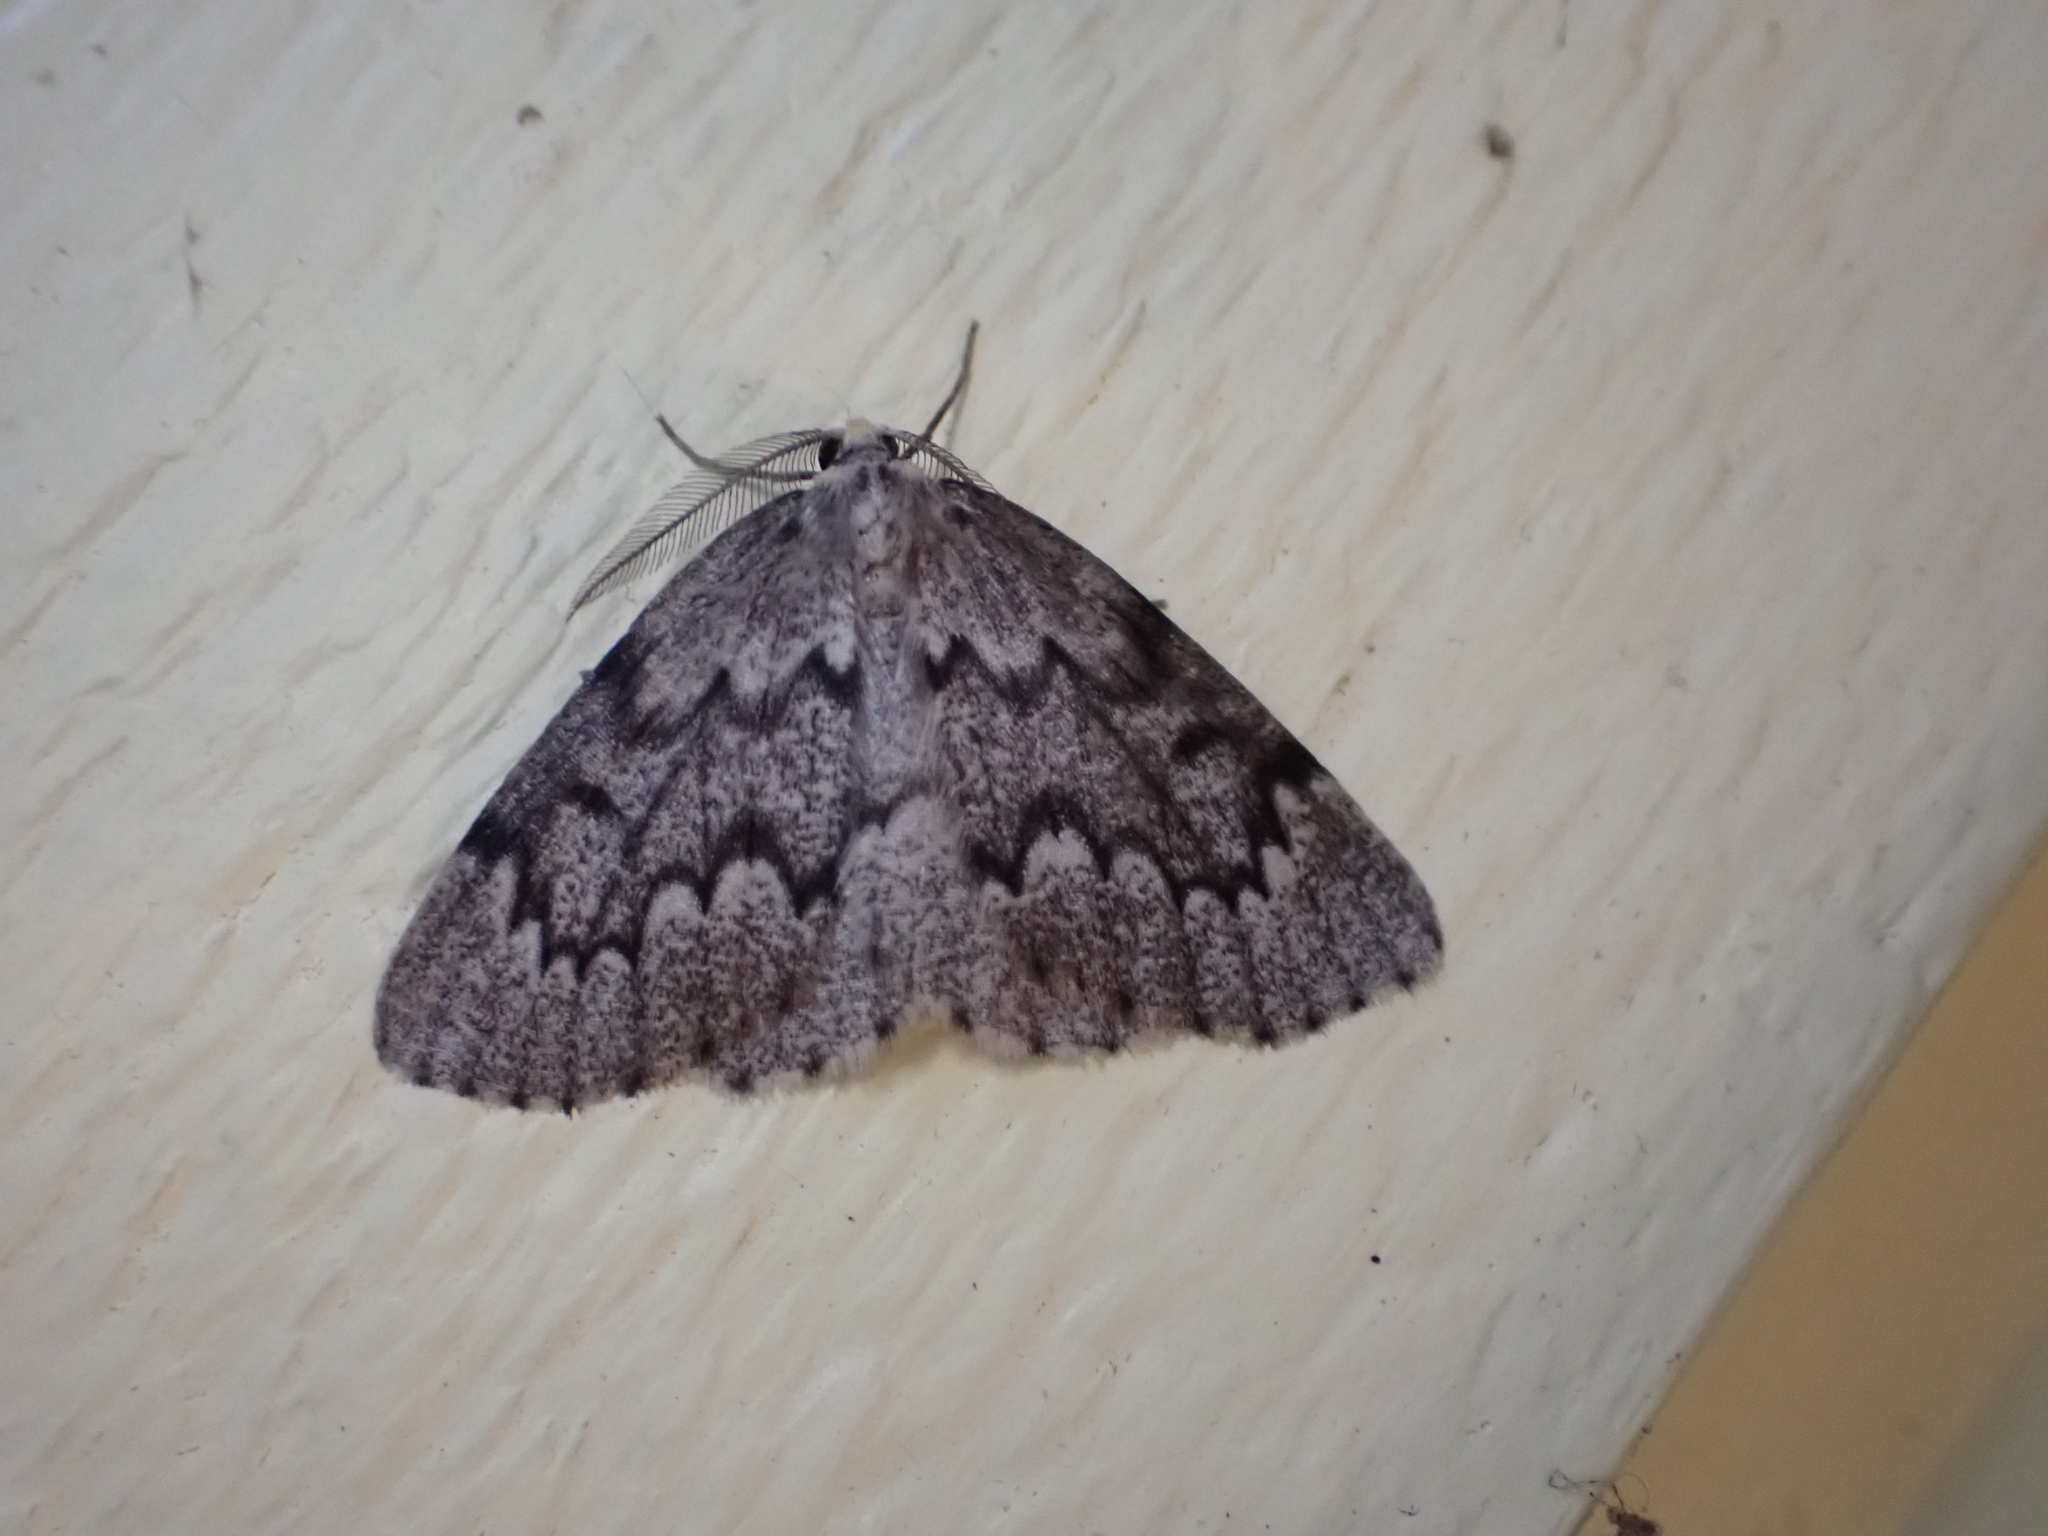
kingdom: Animalia
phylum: Arthropoda
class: Insecta
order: Lepidoptera
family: Geometridae
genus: Nepytia
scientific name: Nepytia canosaria
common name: False hemlock looper
